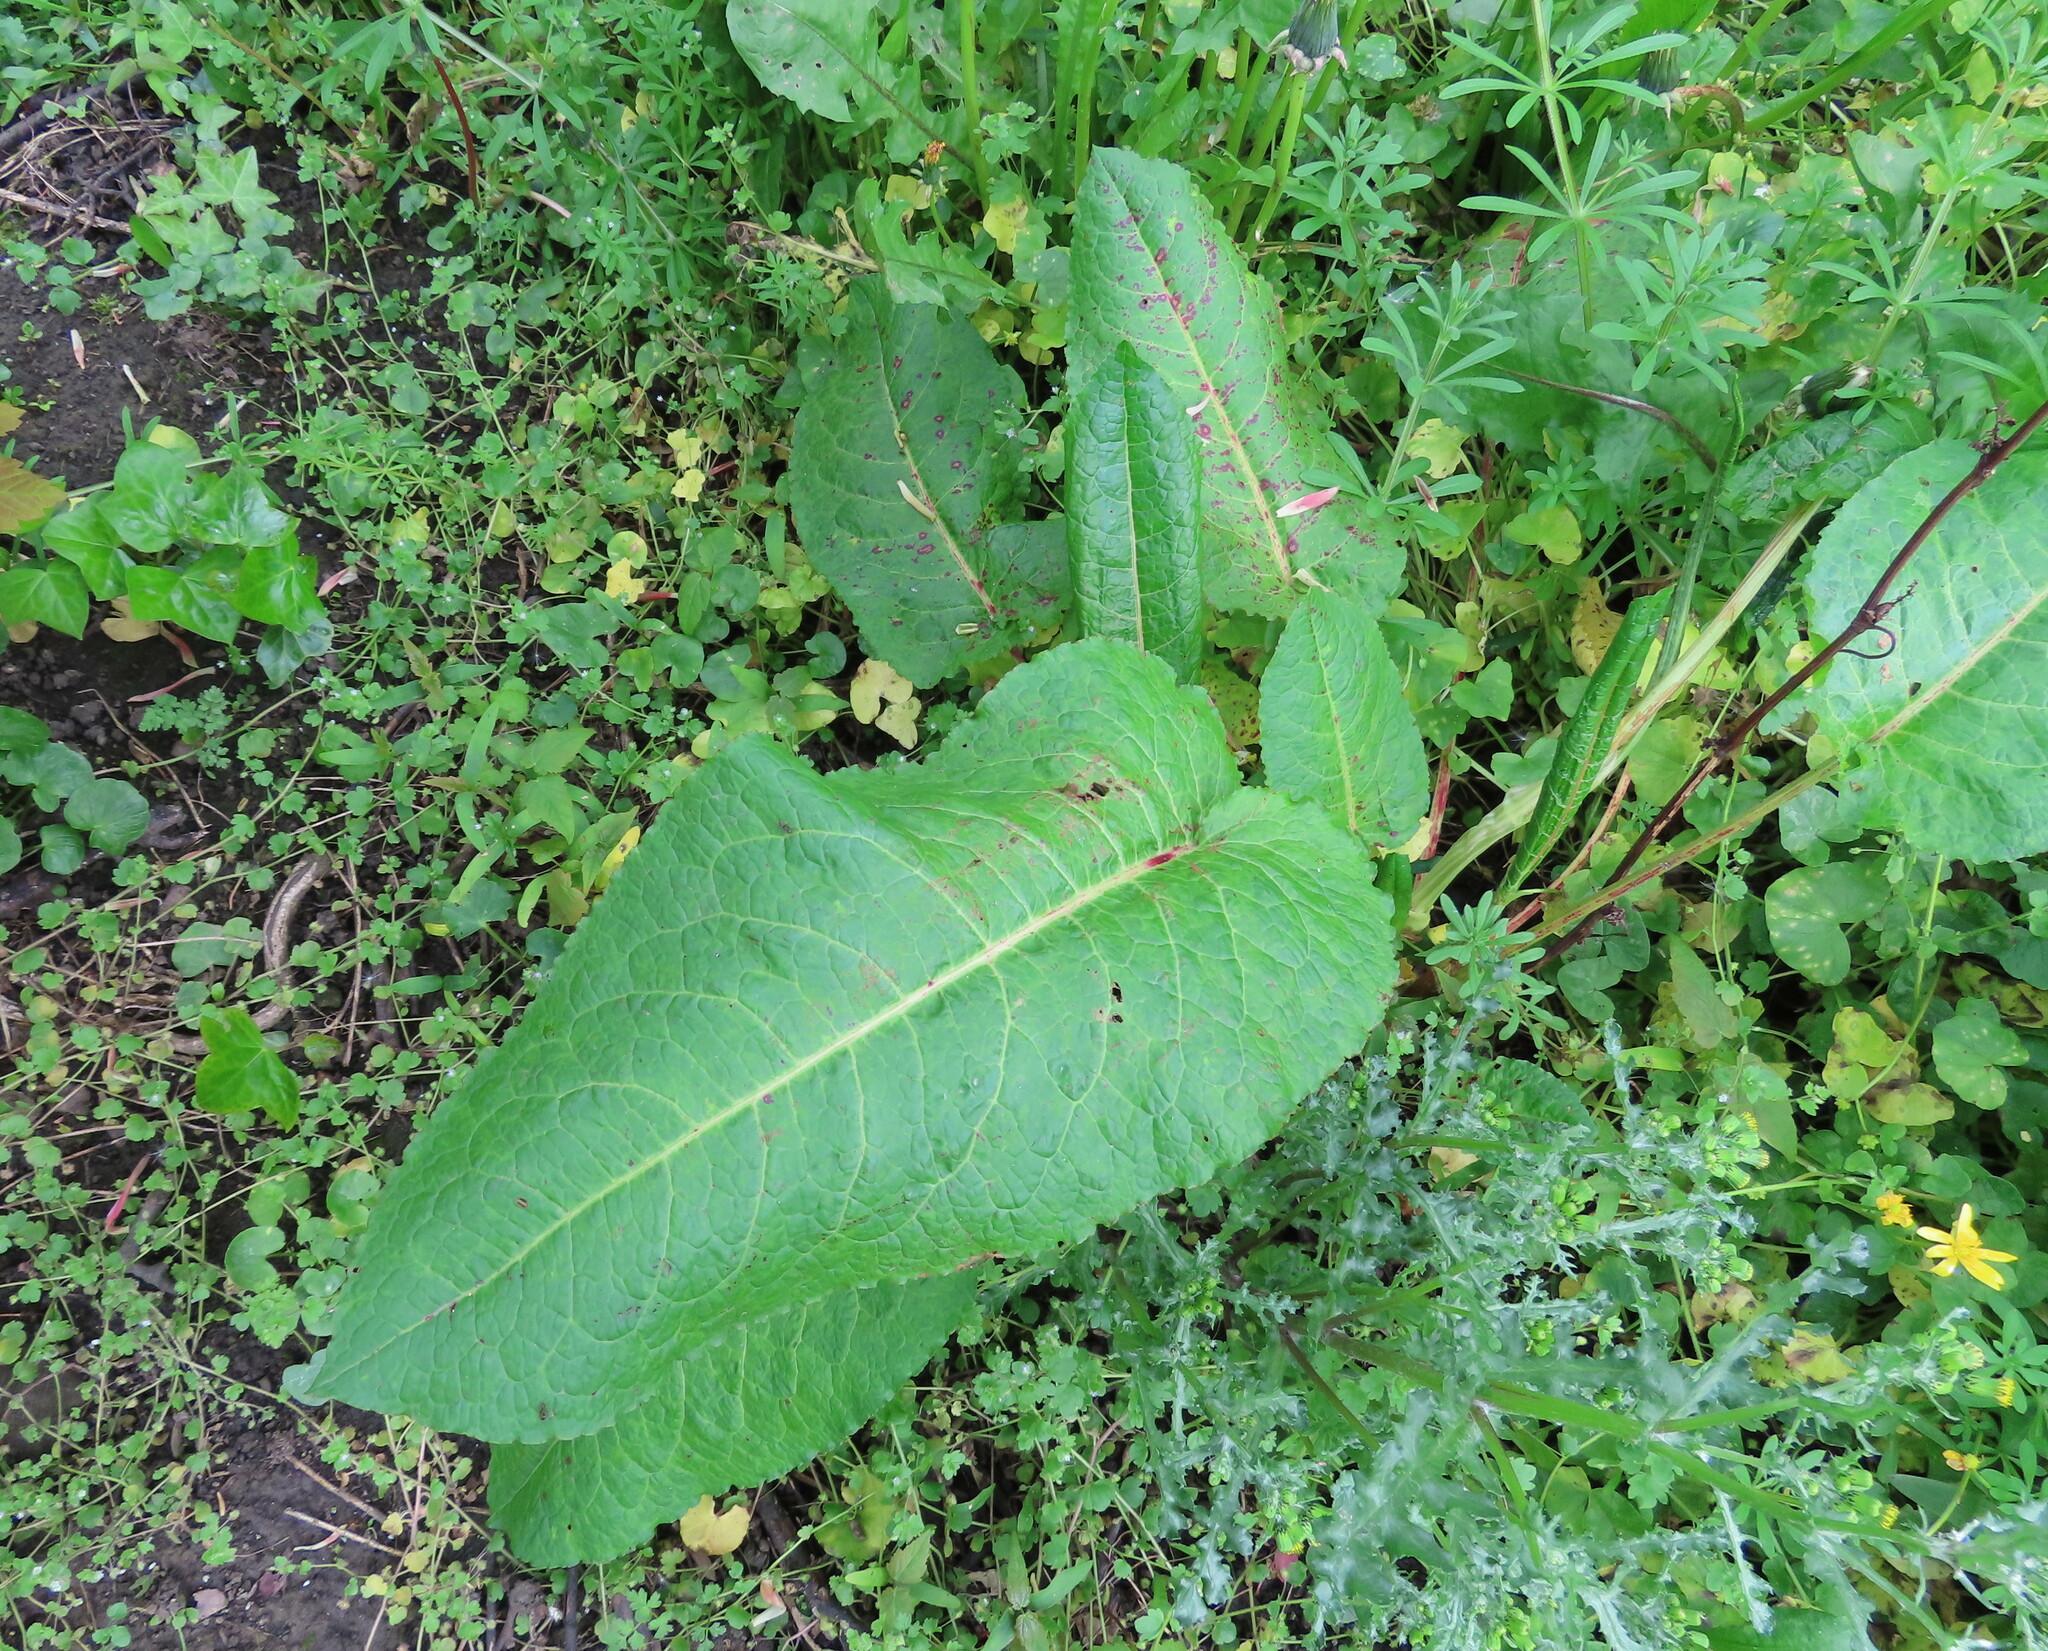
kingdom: Plantae
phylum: Tracheophyta
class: Magnoliopsida
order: Caryophyllales
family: Polygonaceae
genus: Rumex
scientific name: Rumex obtusifolius
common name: Bitter dock
